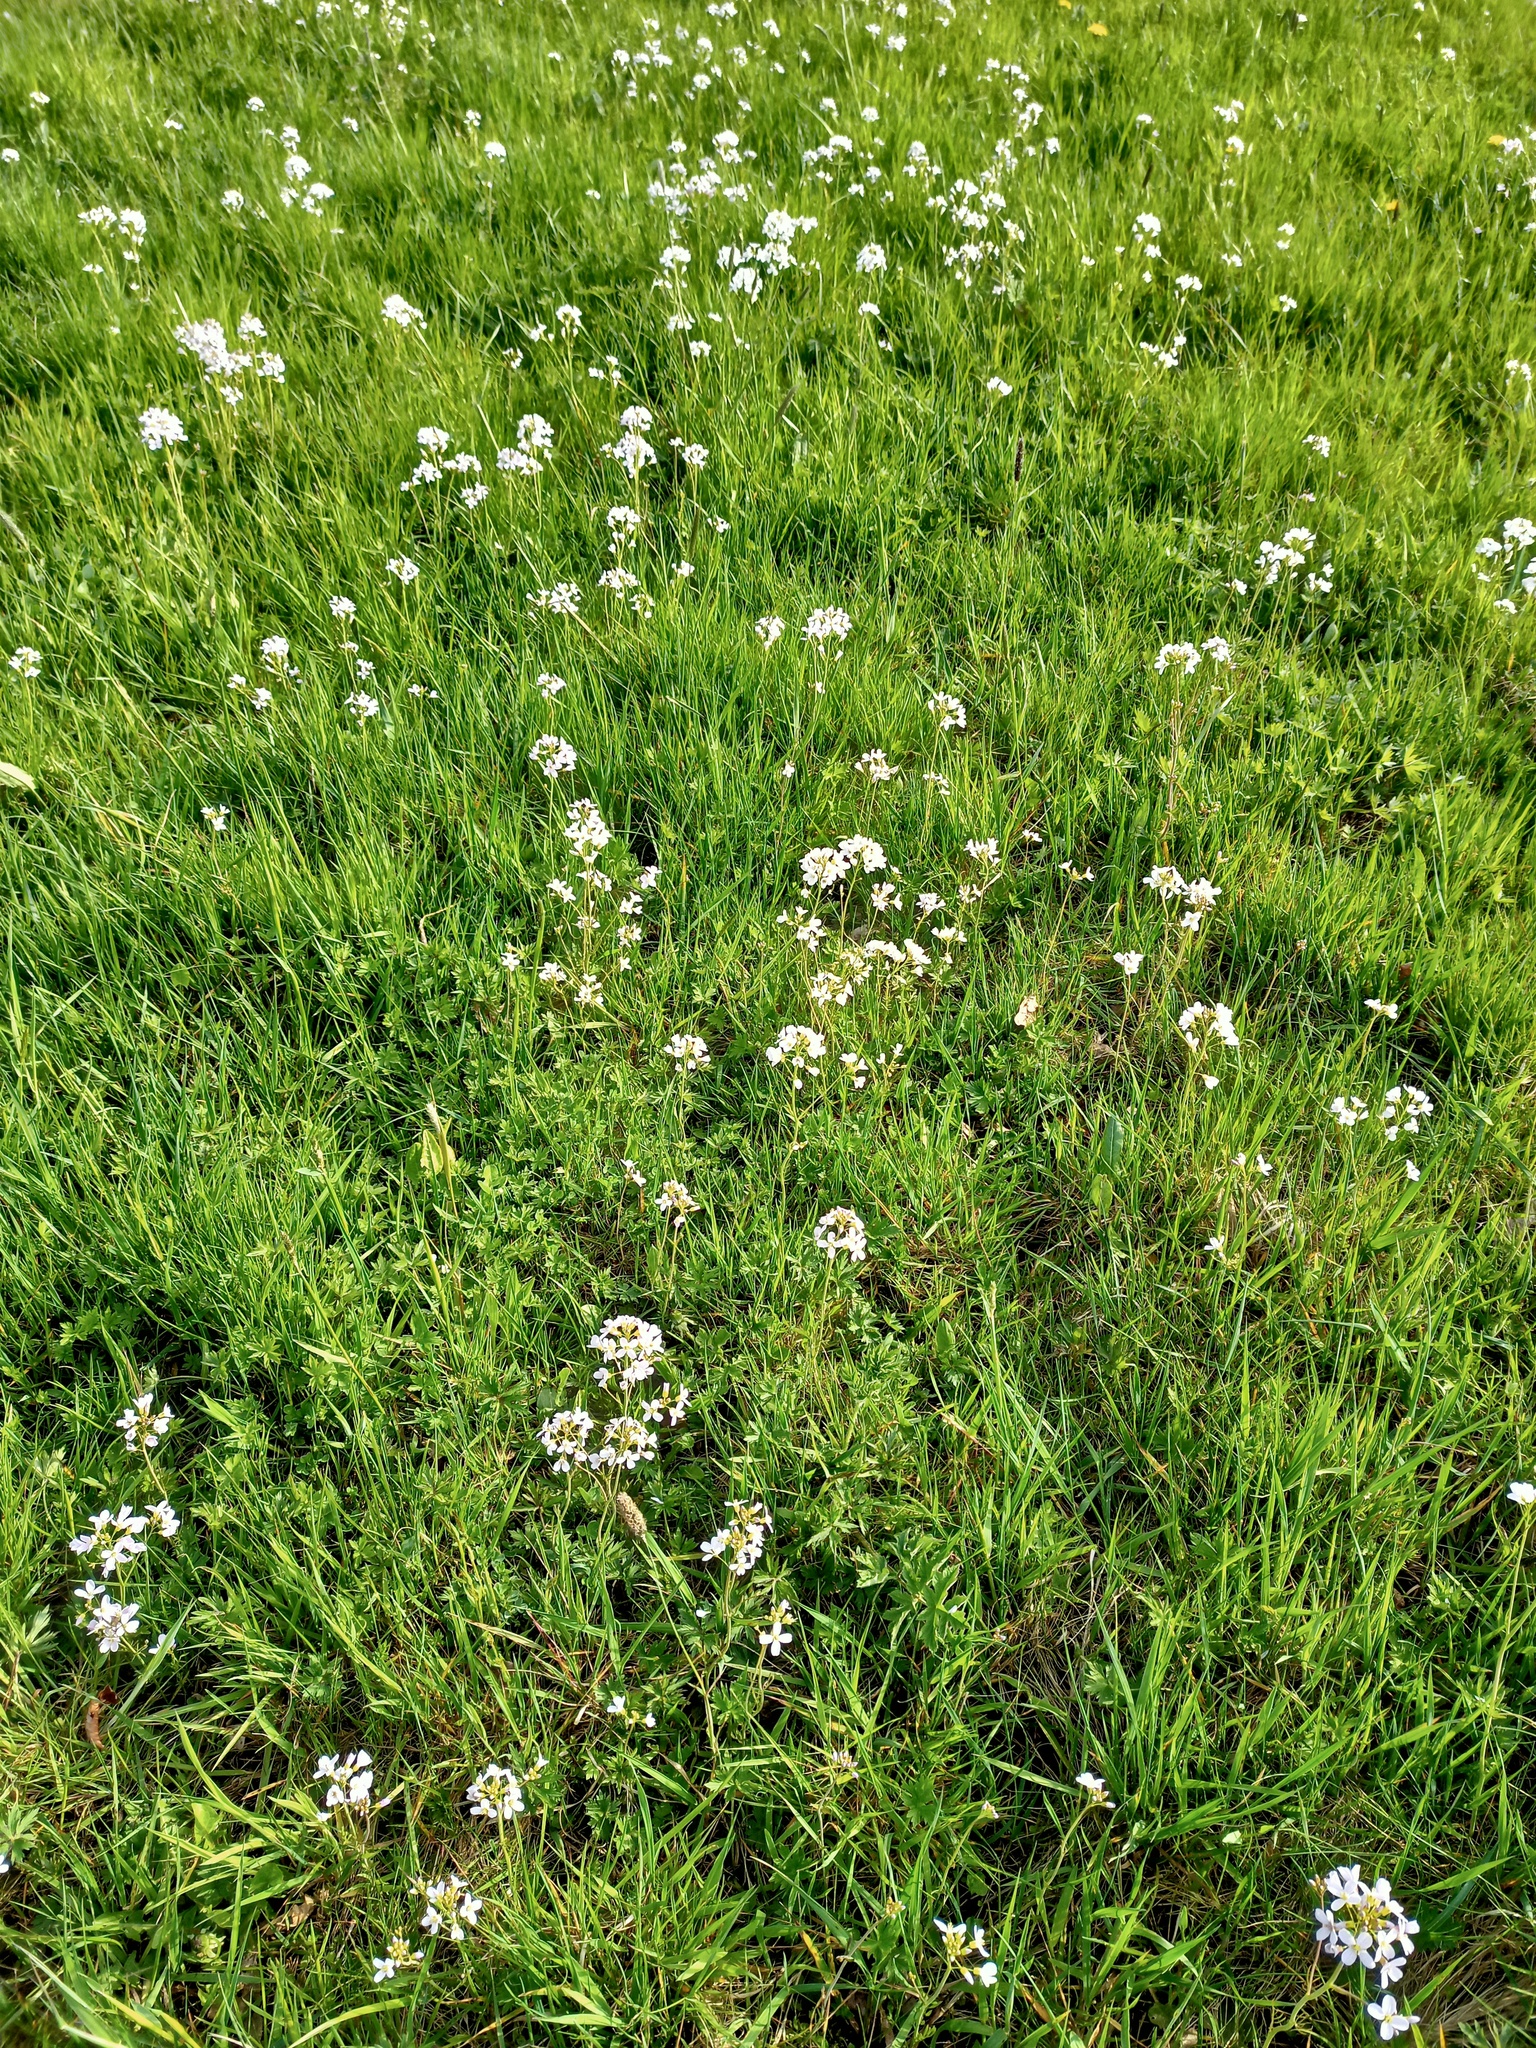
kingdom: Plantae
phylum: Tracheophyta
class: Magnoliopsida
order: Brassicales
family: Brassicaceae
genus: Cardamine
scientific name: Cardamine pratensis
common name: Cuckoo flower
